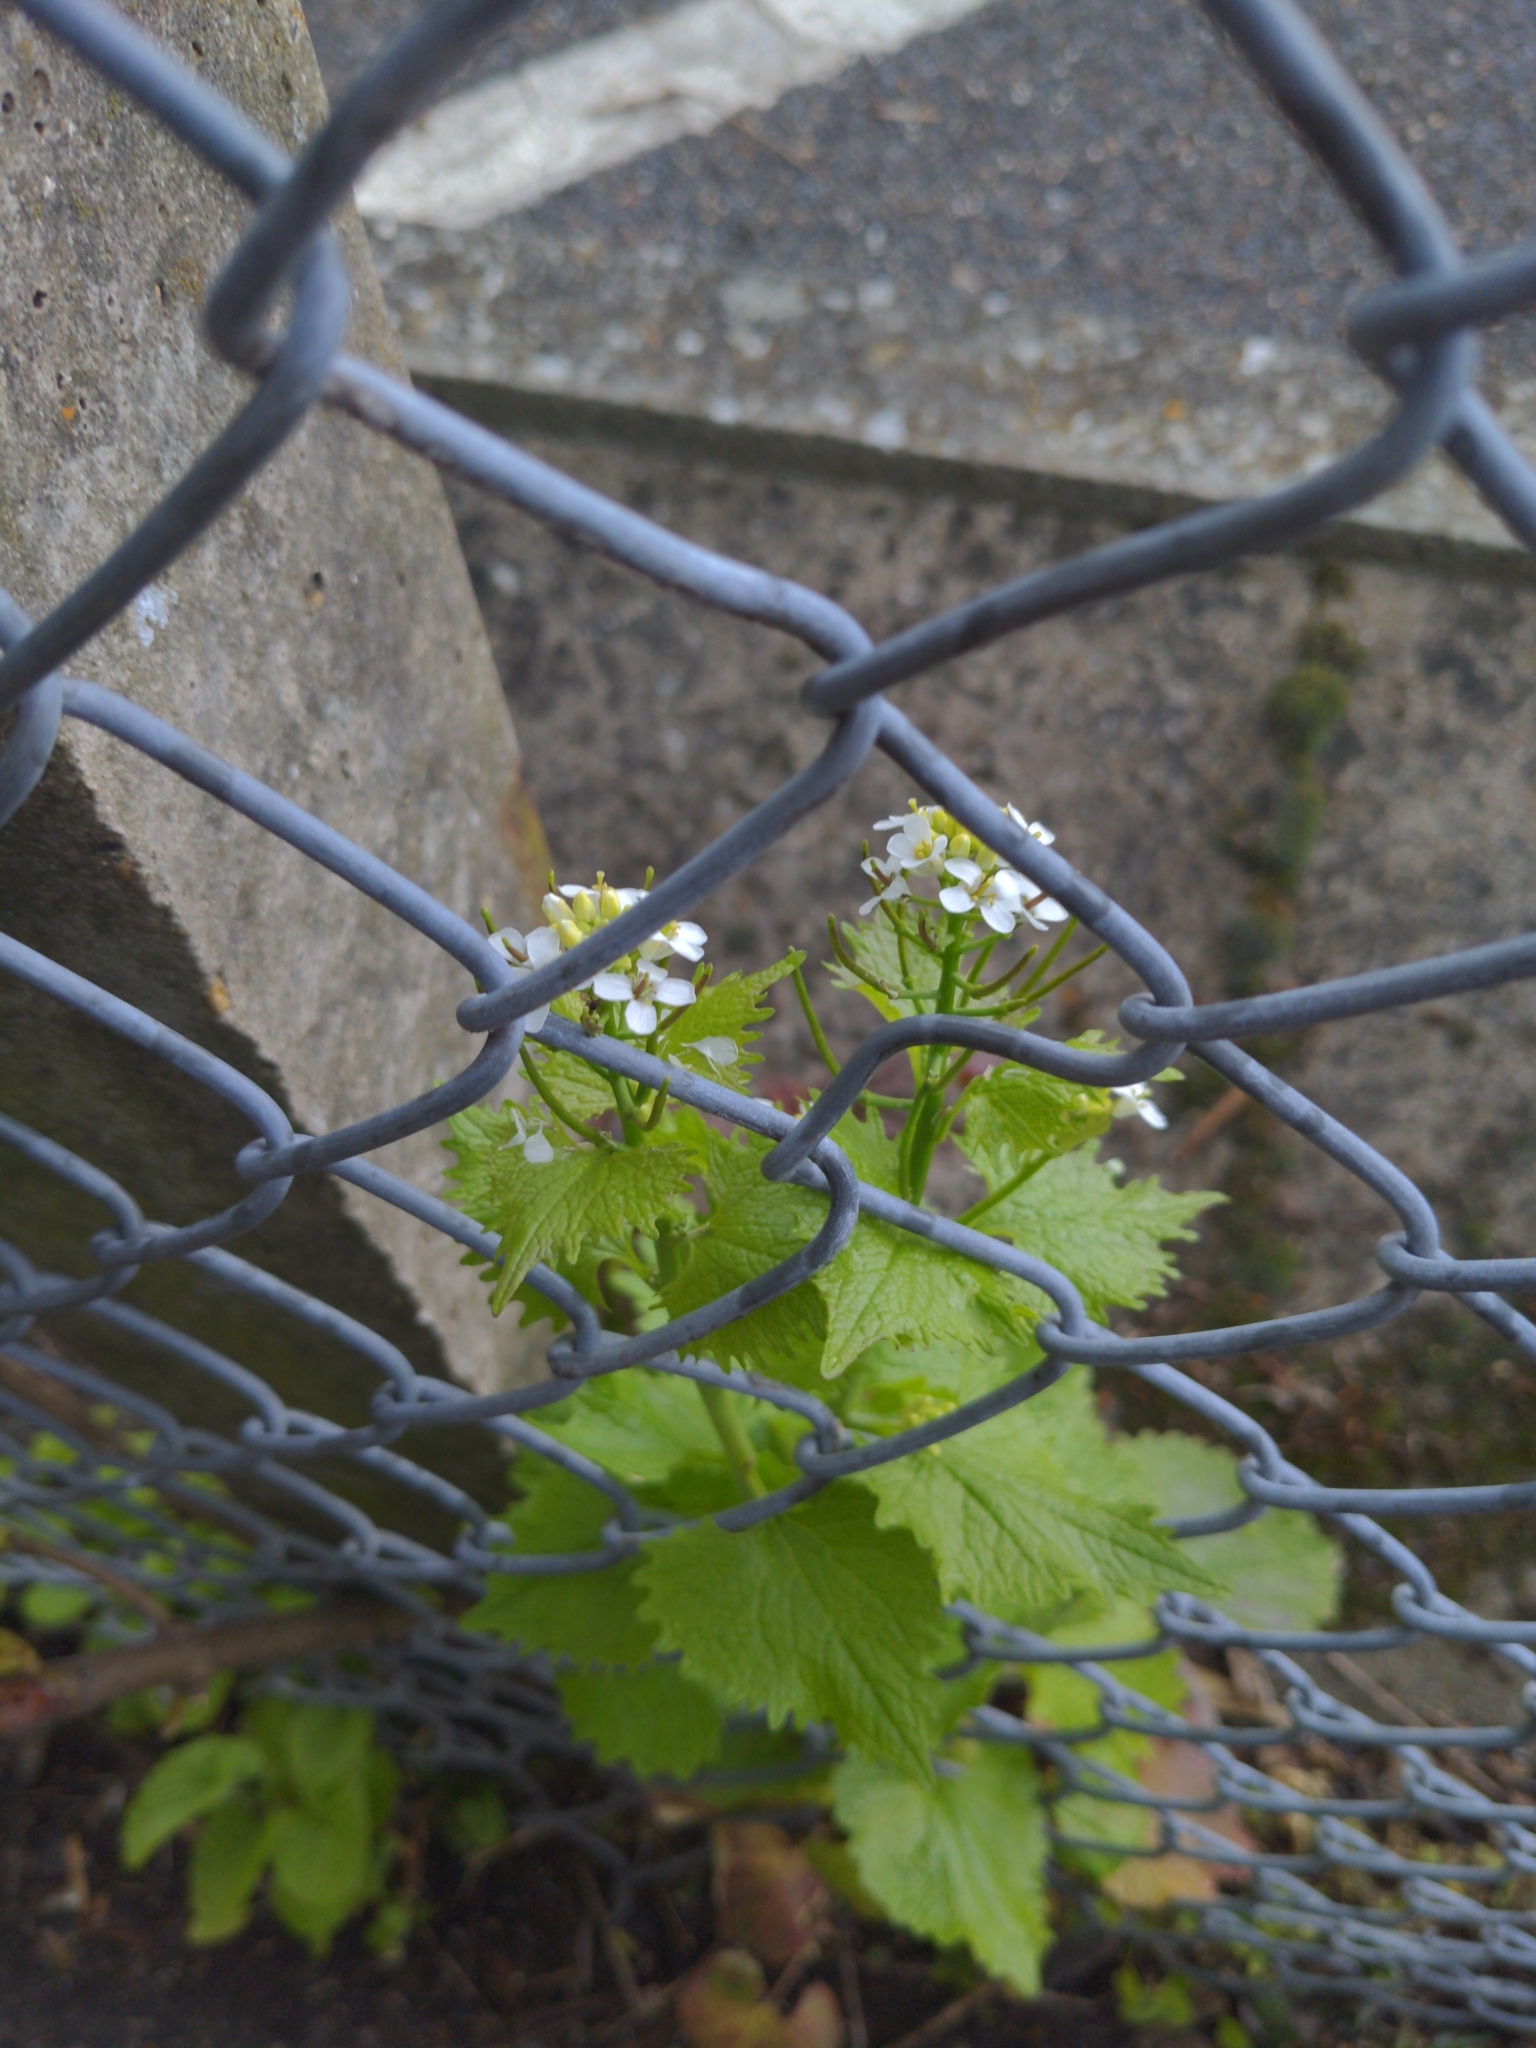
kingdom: Plantae
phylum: Tracheophyta
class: Magnoliopsida
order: Brassicales
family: Brassicaceae
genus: Alliaria
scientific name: Alliaria petiolata
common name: Garlic mustard
